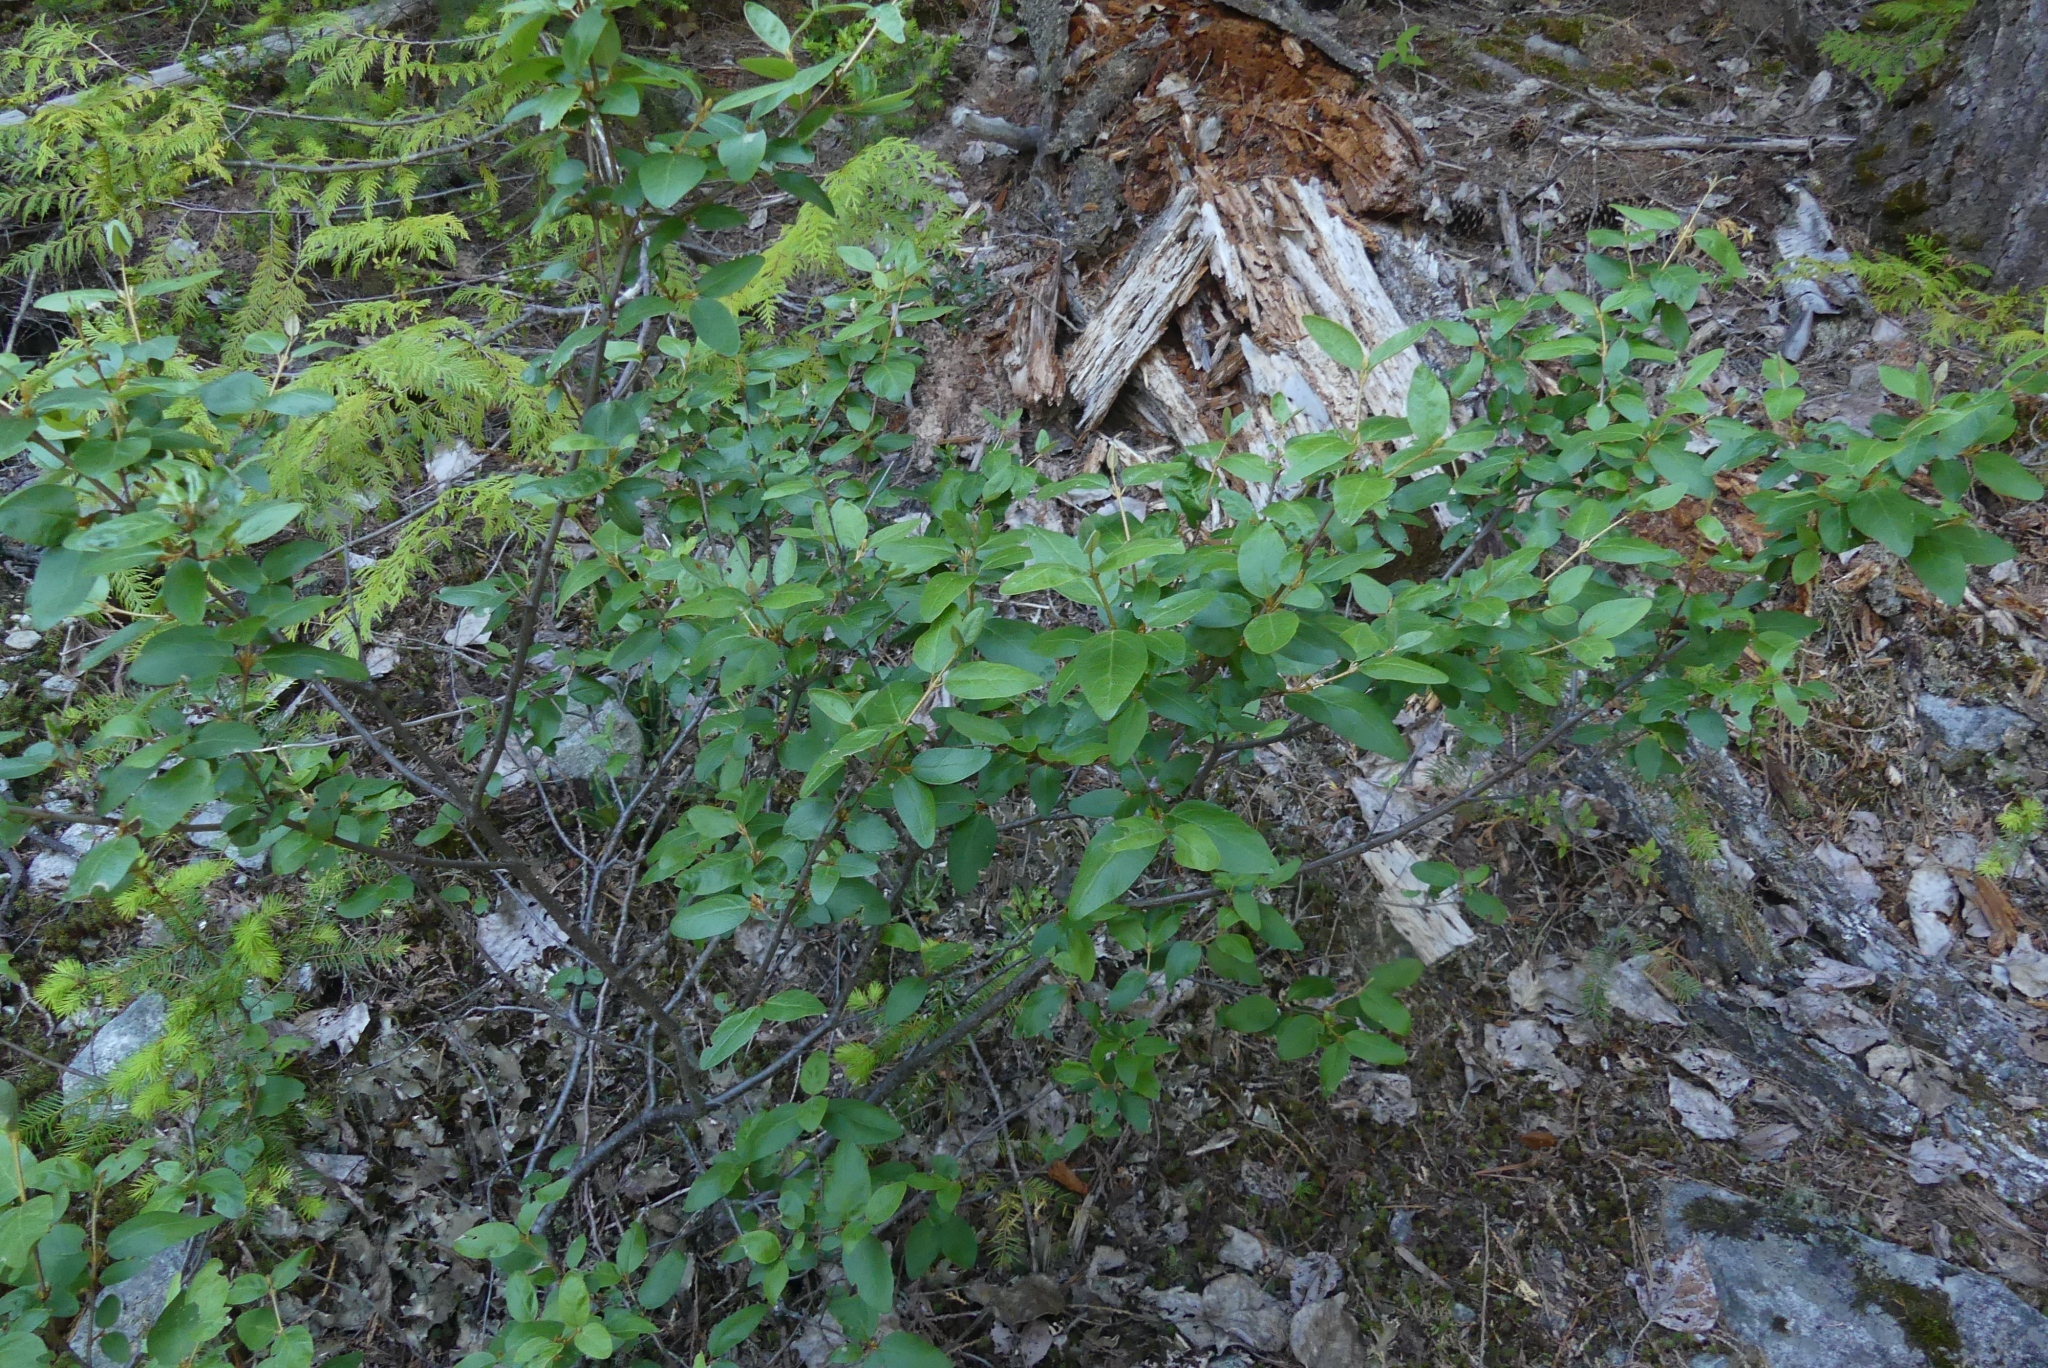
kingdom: Plantae
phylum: Tracheophyta
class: Magnoliopsida
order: Rosales
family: Elaeagnaceae
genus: Shepherdia
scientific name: Shepherdia canadensis
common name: Soapberry
